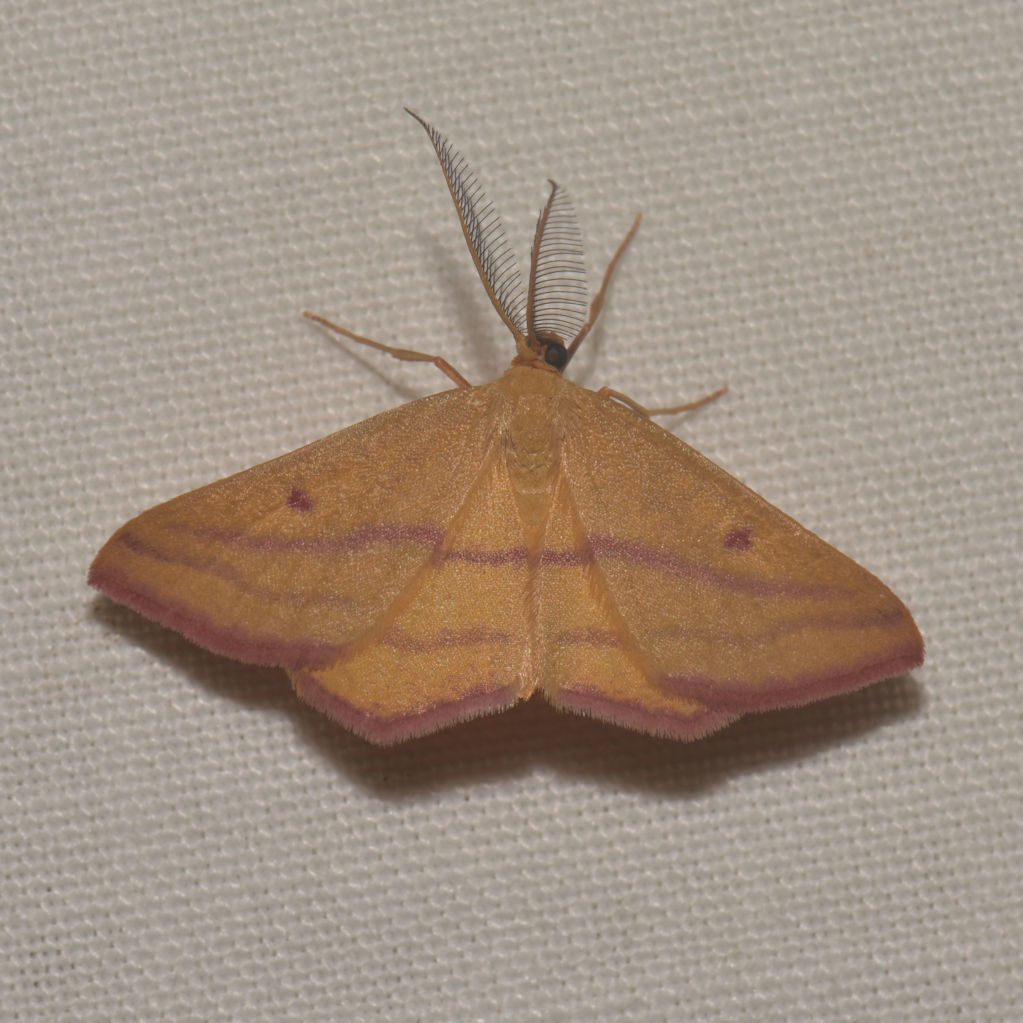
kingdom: Animalia
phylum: Arthropoda
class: Insecta
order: Lepidoptera
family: Geometridae
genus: Haematopis
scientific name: Haematopis grataria
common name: Chickweed geometer
